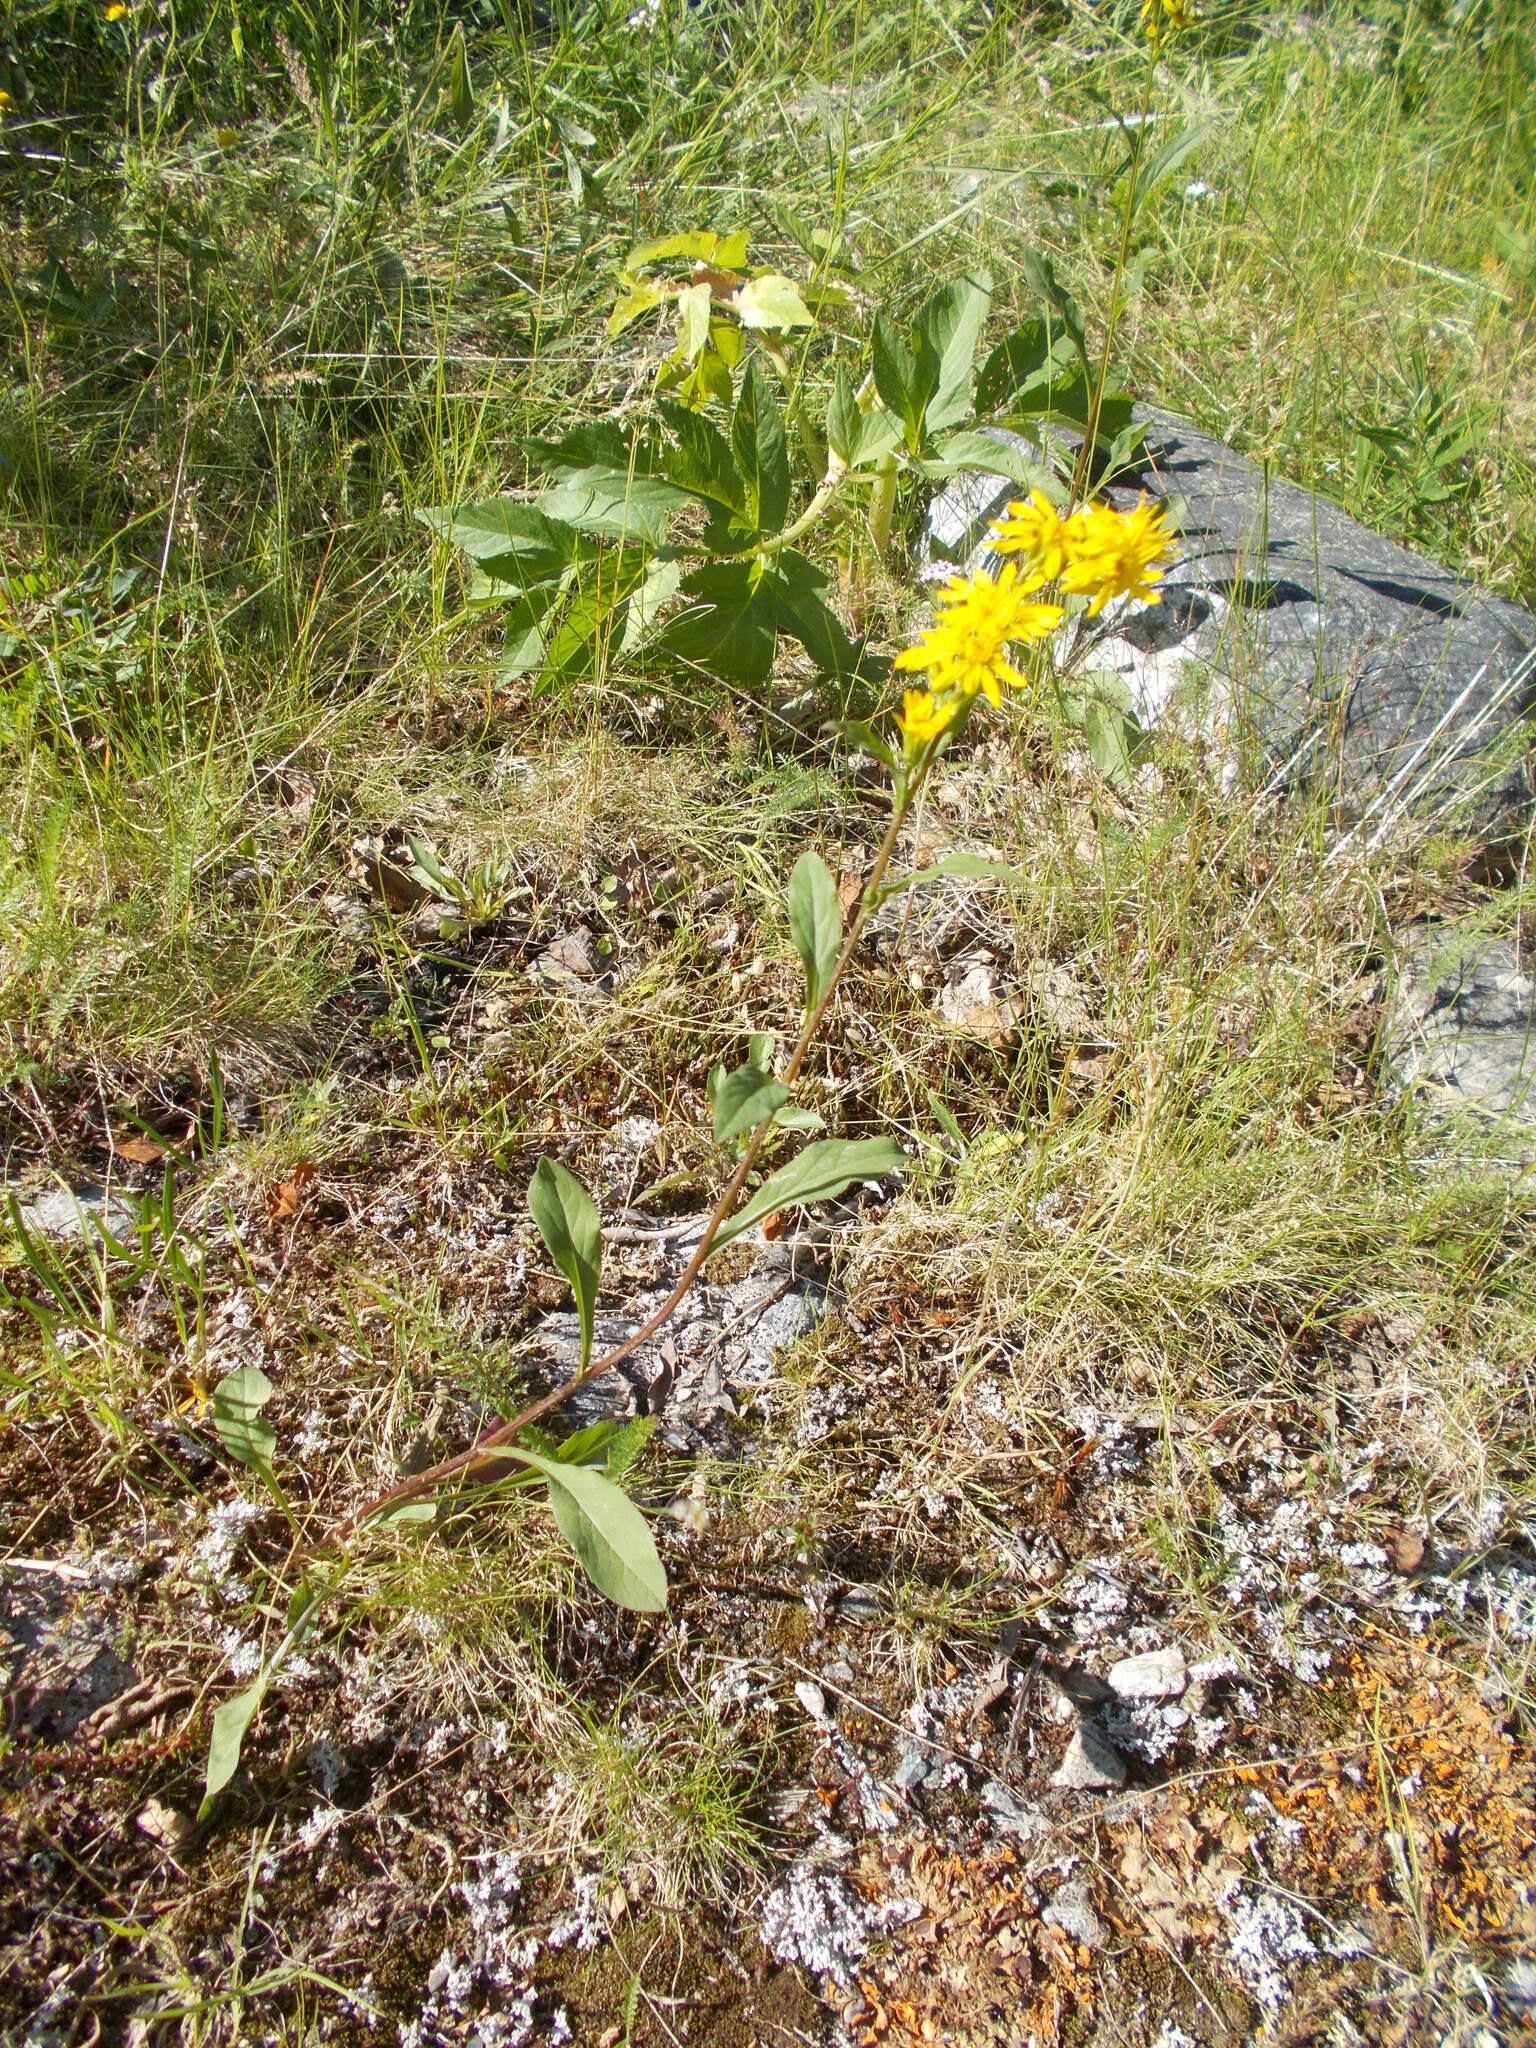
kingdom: Plantae
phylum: Tracheophyta
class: Magnoliopsida
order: Asterales
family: Asteraceae
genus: Solidago
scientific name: Solidago virgaurea
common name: Goldenrod
